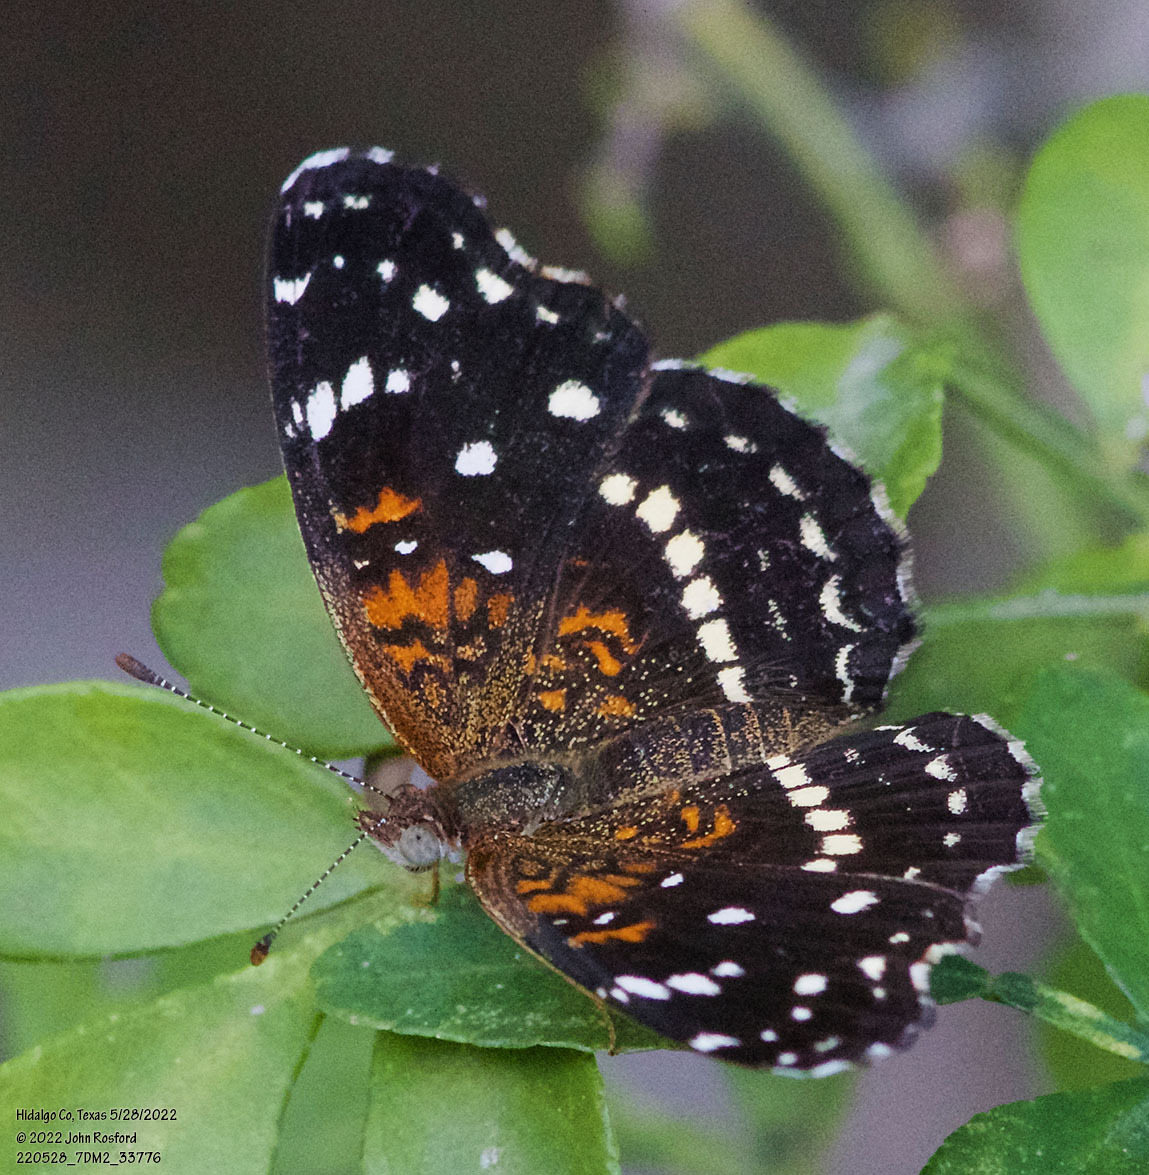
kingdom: Animalia
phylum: Arthropoda
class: Insecta
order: Lepidoptera
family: Nymphalidae
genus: Anthanassa
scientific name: Anthanassa texana
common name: Texan crescent
